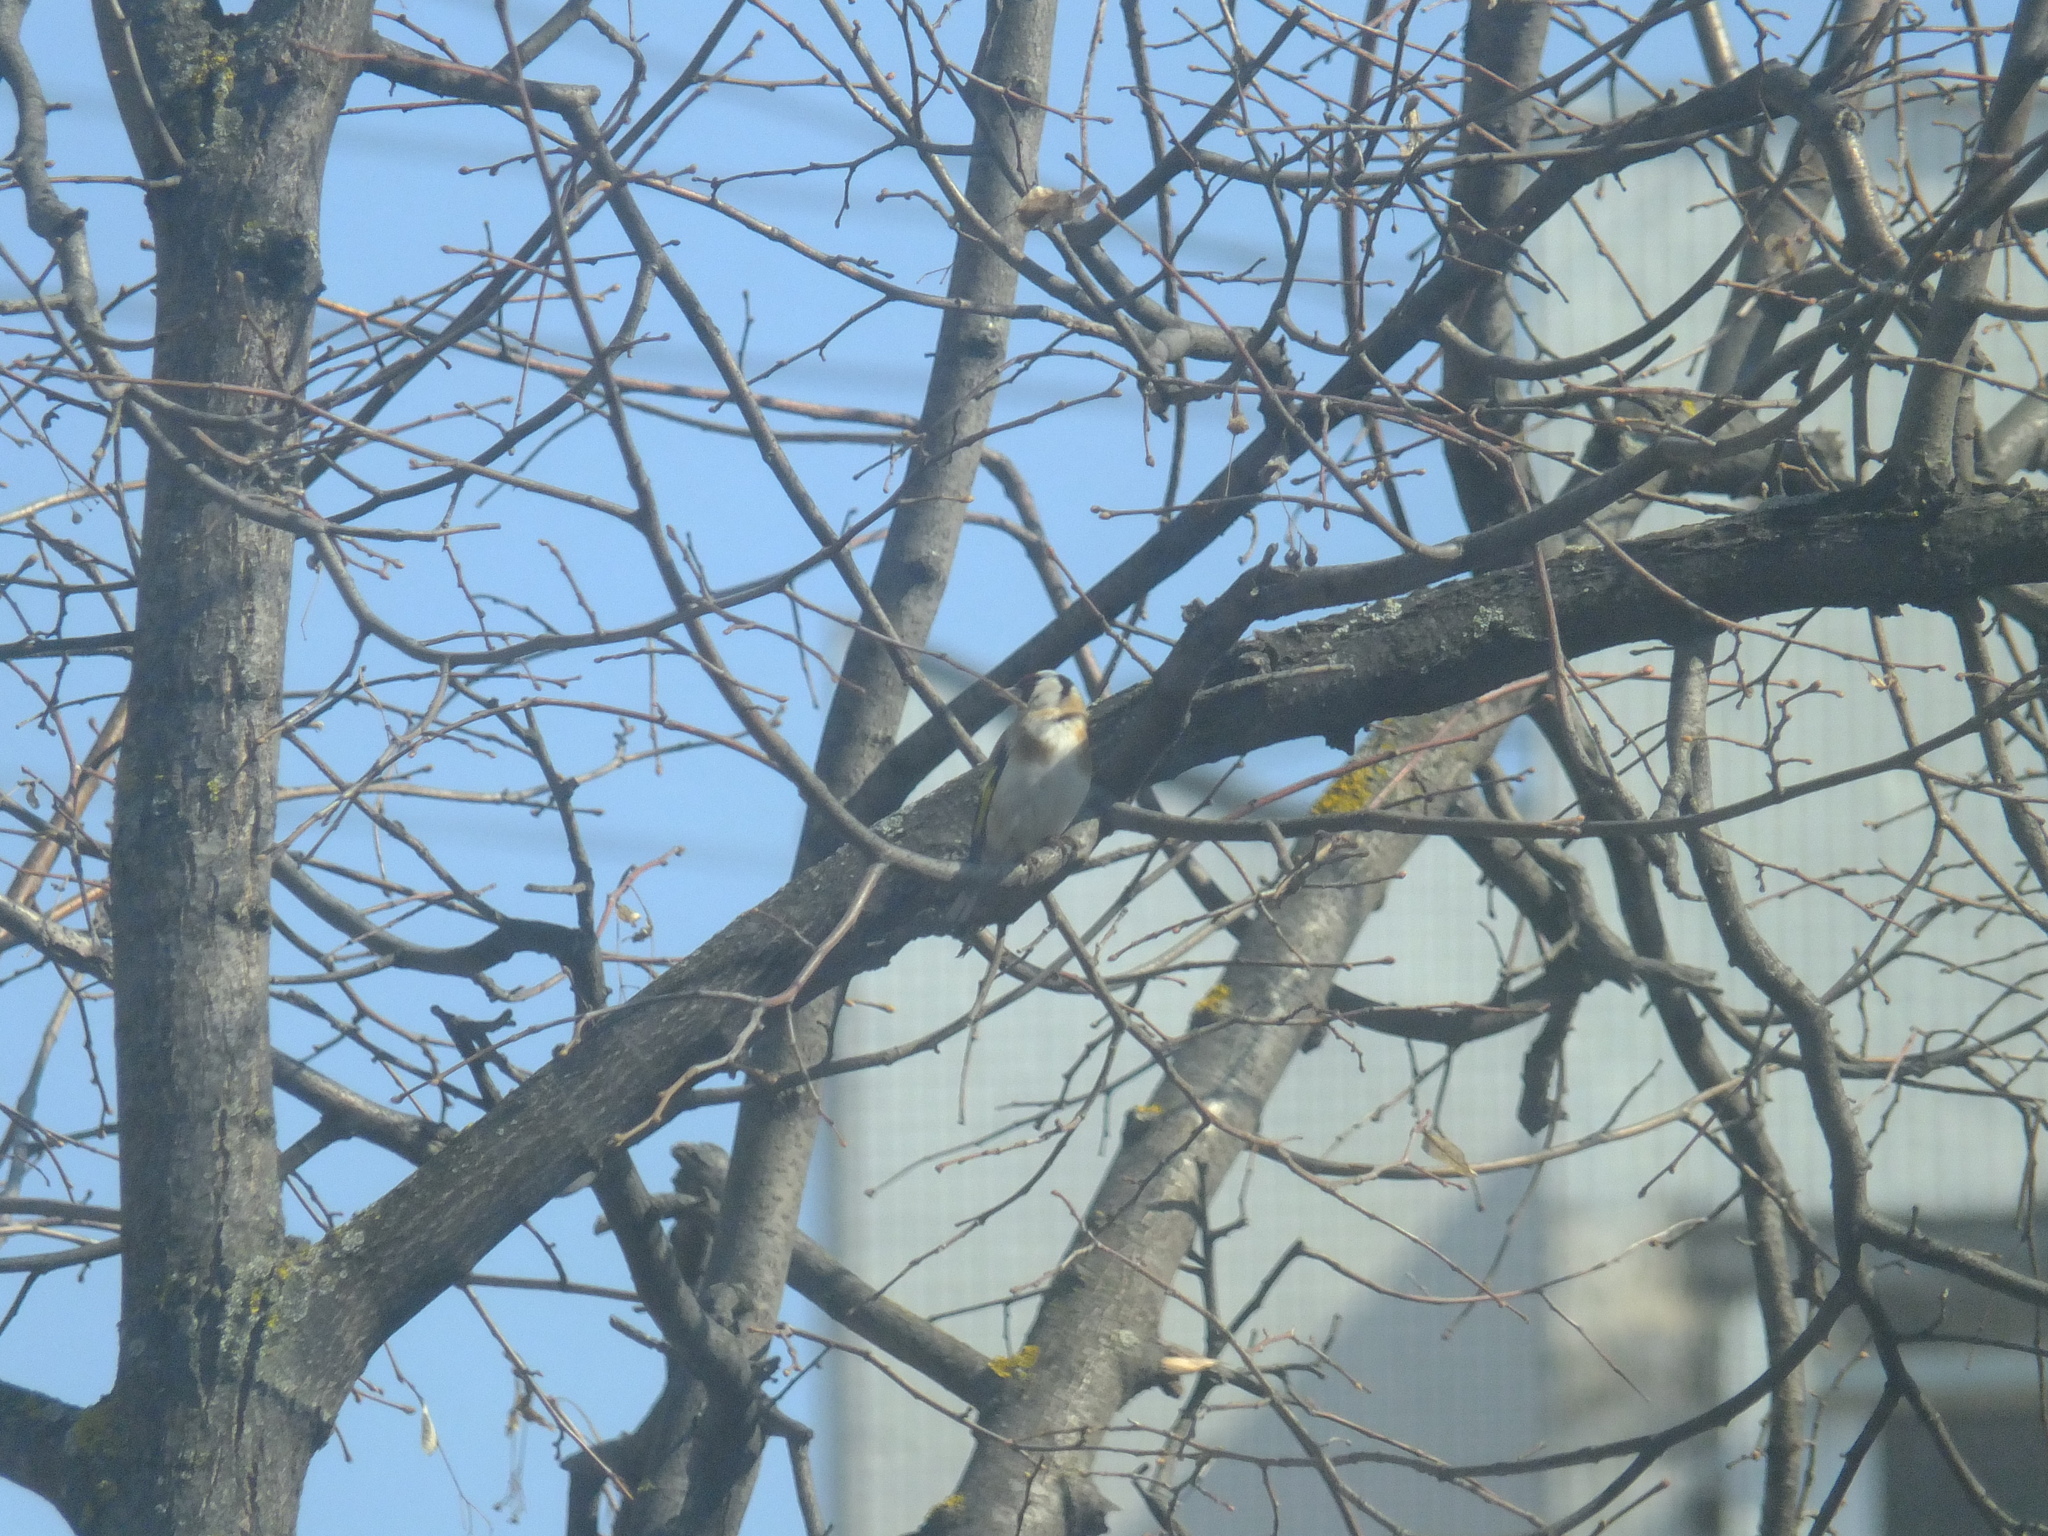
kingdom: Animalia
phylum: Chordata
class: Aves
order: Passeriformes
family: Fringillidae
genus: Carduelis
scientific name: Carduelis carduelis
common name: European goldfinch
